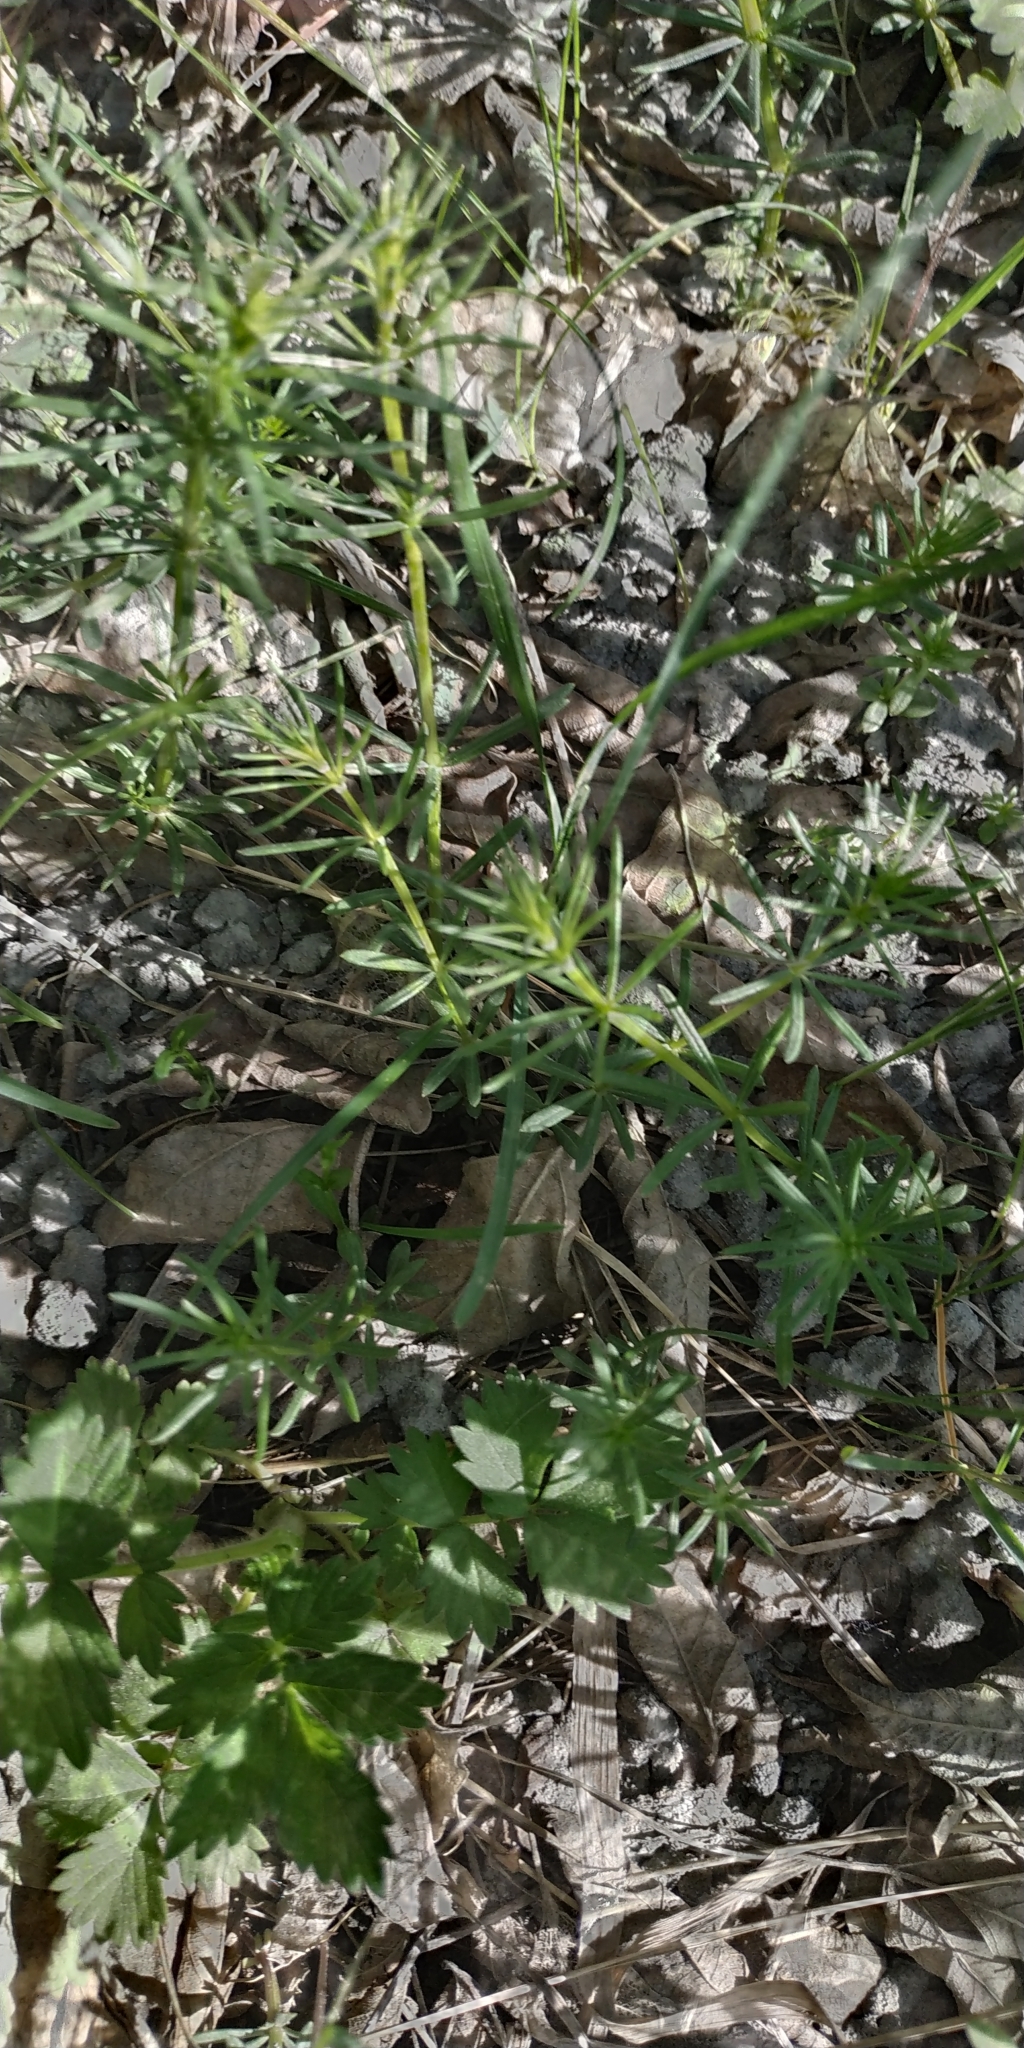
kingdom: Plantae
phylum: Tracheophyta
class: Magnoliopsida
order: Gentianales
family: Rubiaceae
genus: Galium
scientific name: Galium verum
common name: Lady's bedstraw
